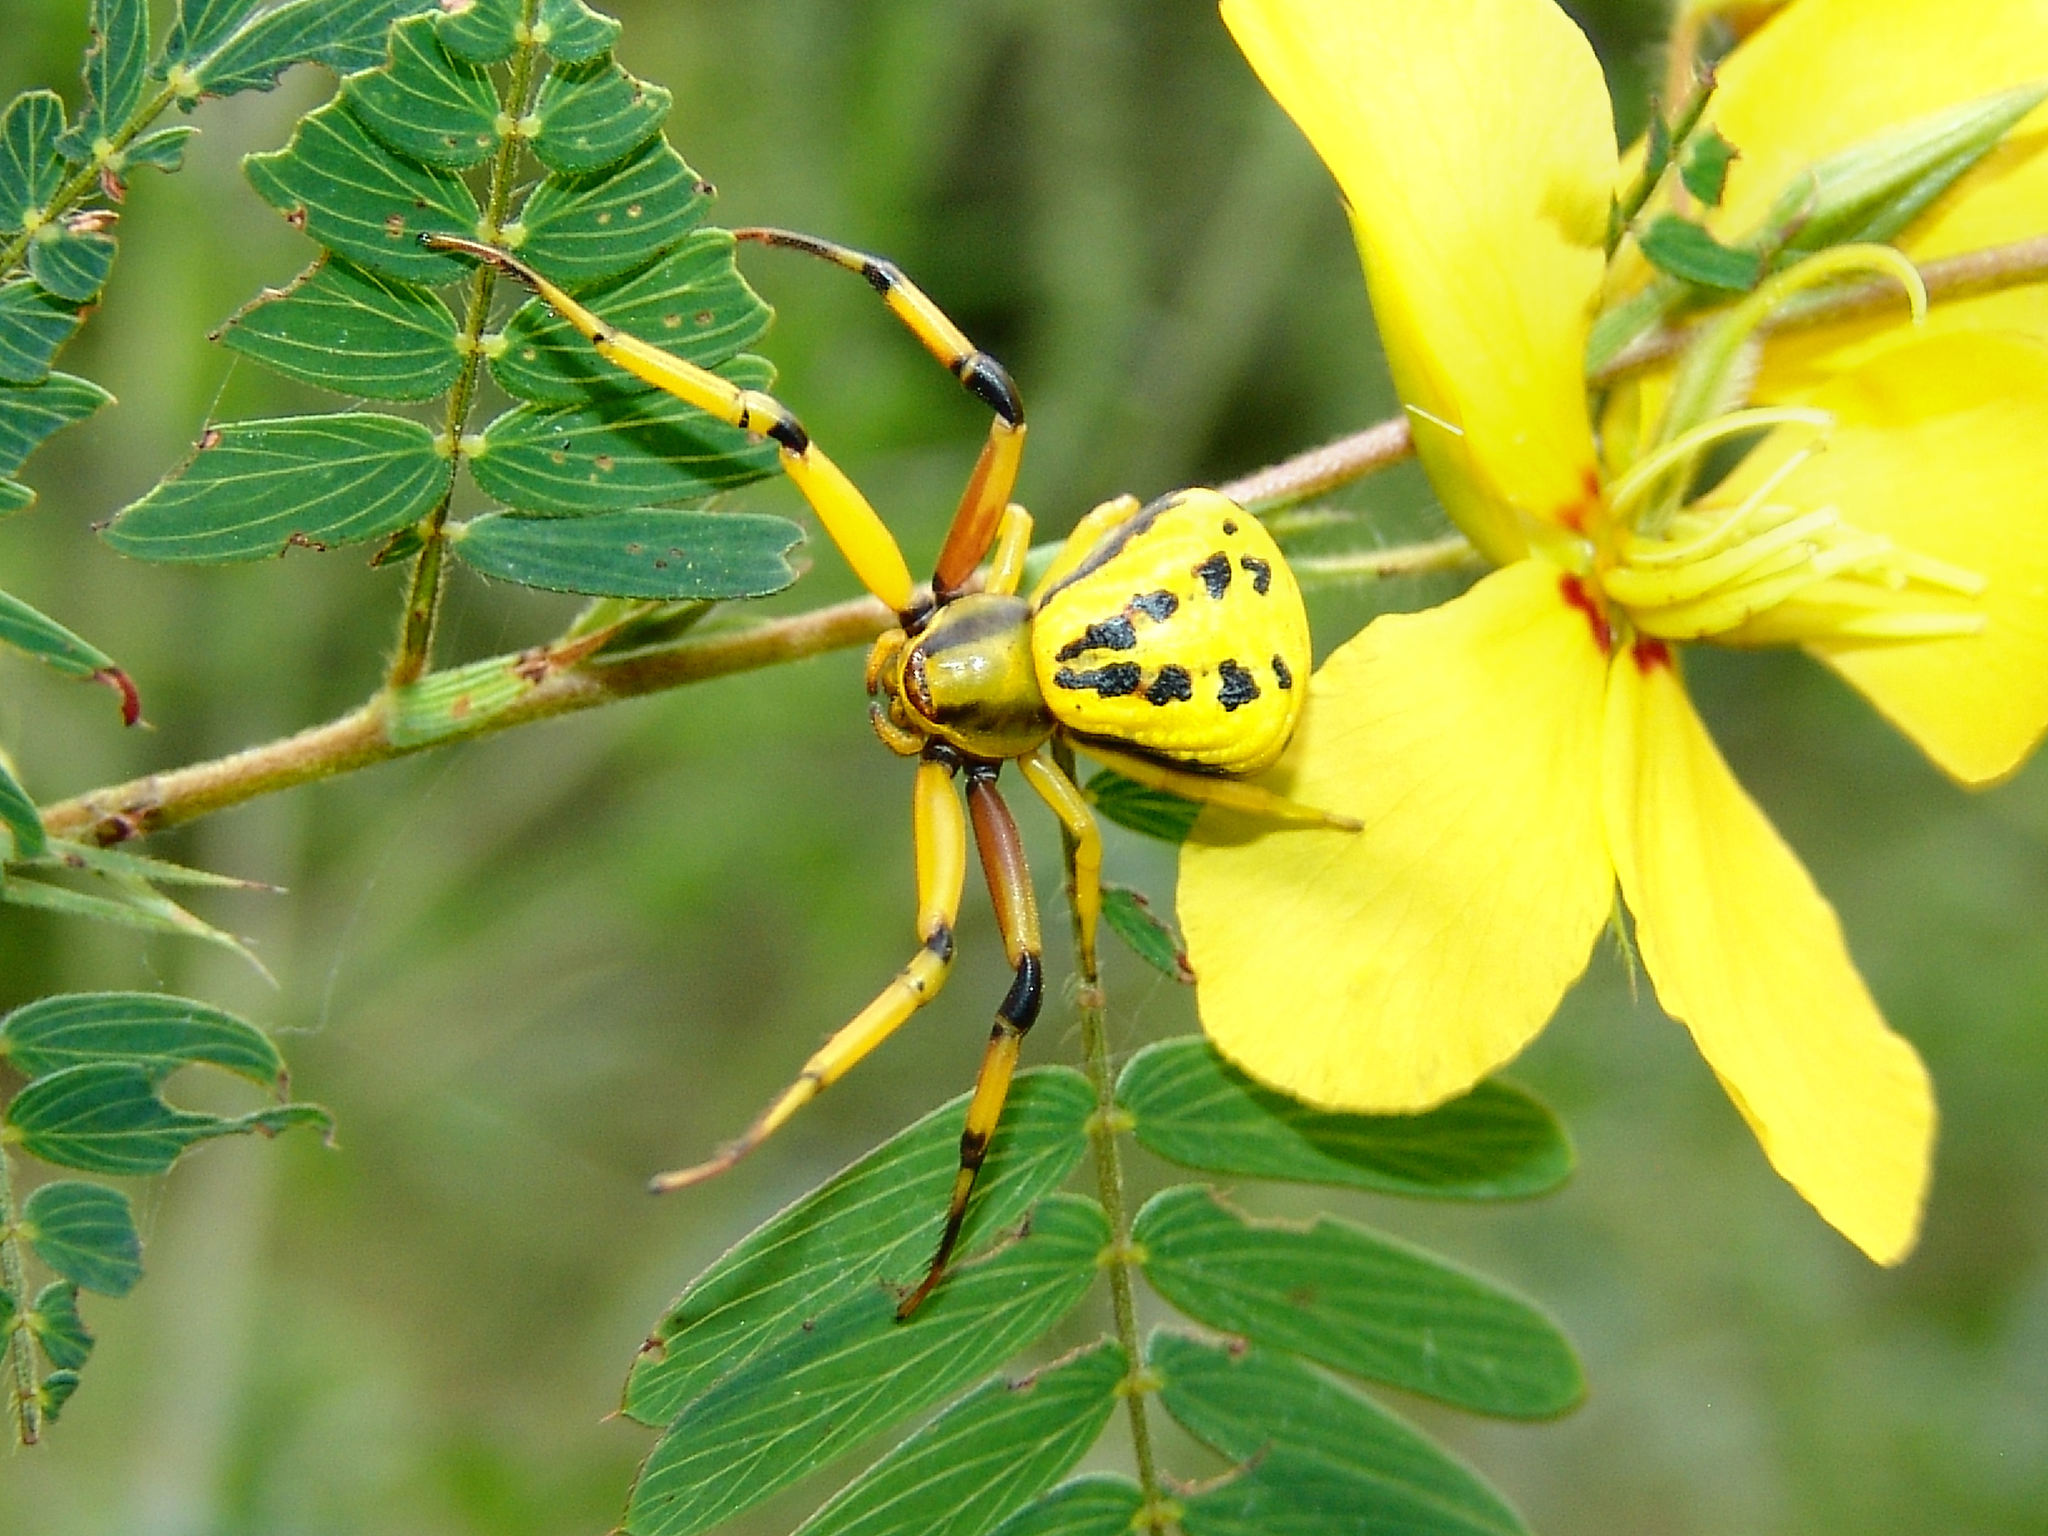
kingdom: Animalia
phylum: Arthropoda
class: Arachnida
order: Araneae
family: Thomisidae
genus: Misumenoides
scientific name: Misumenoides formosipes
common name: White-banded crab spider
